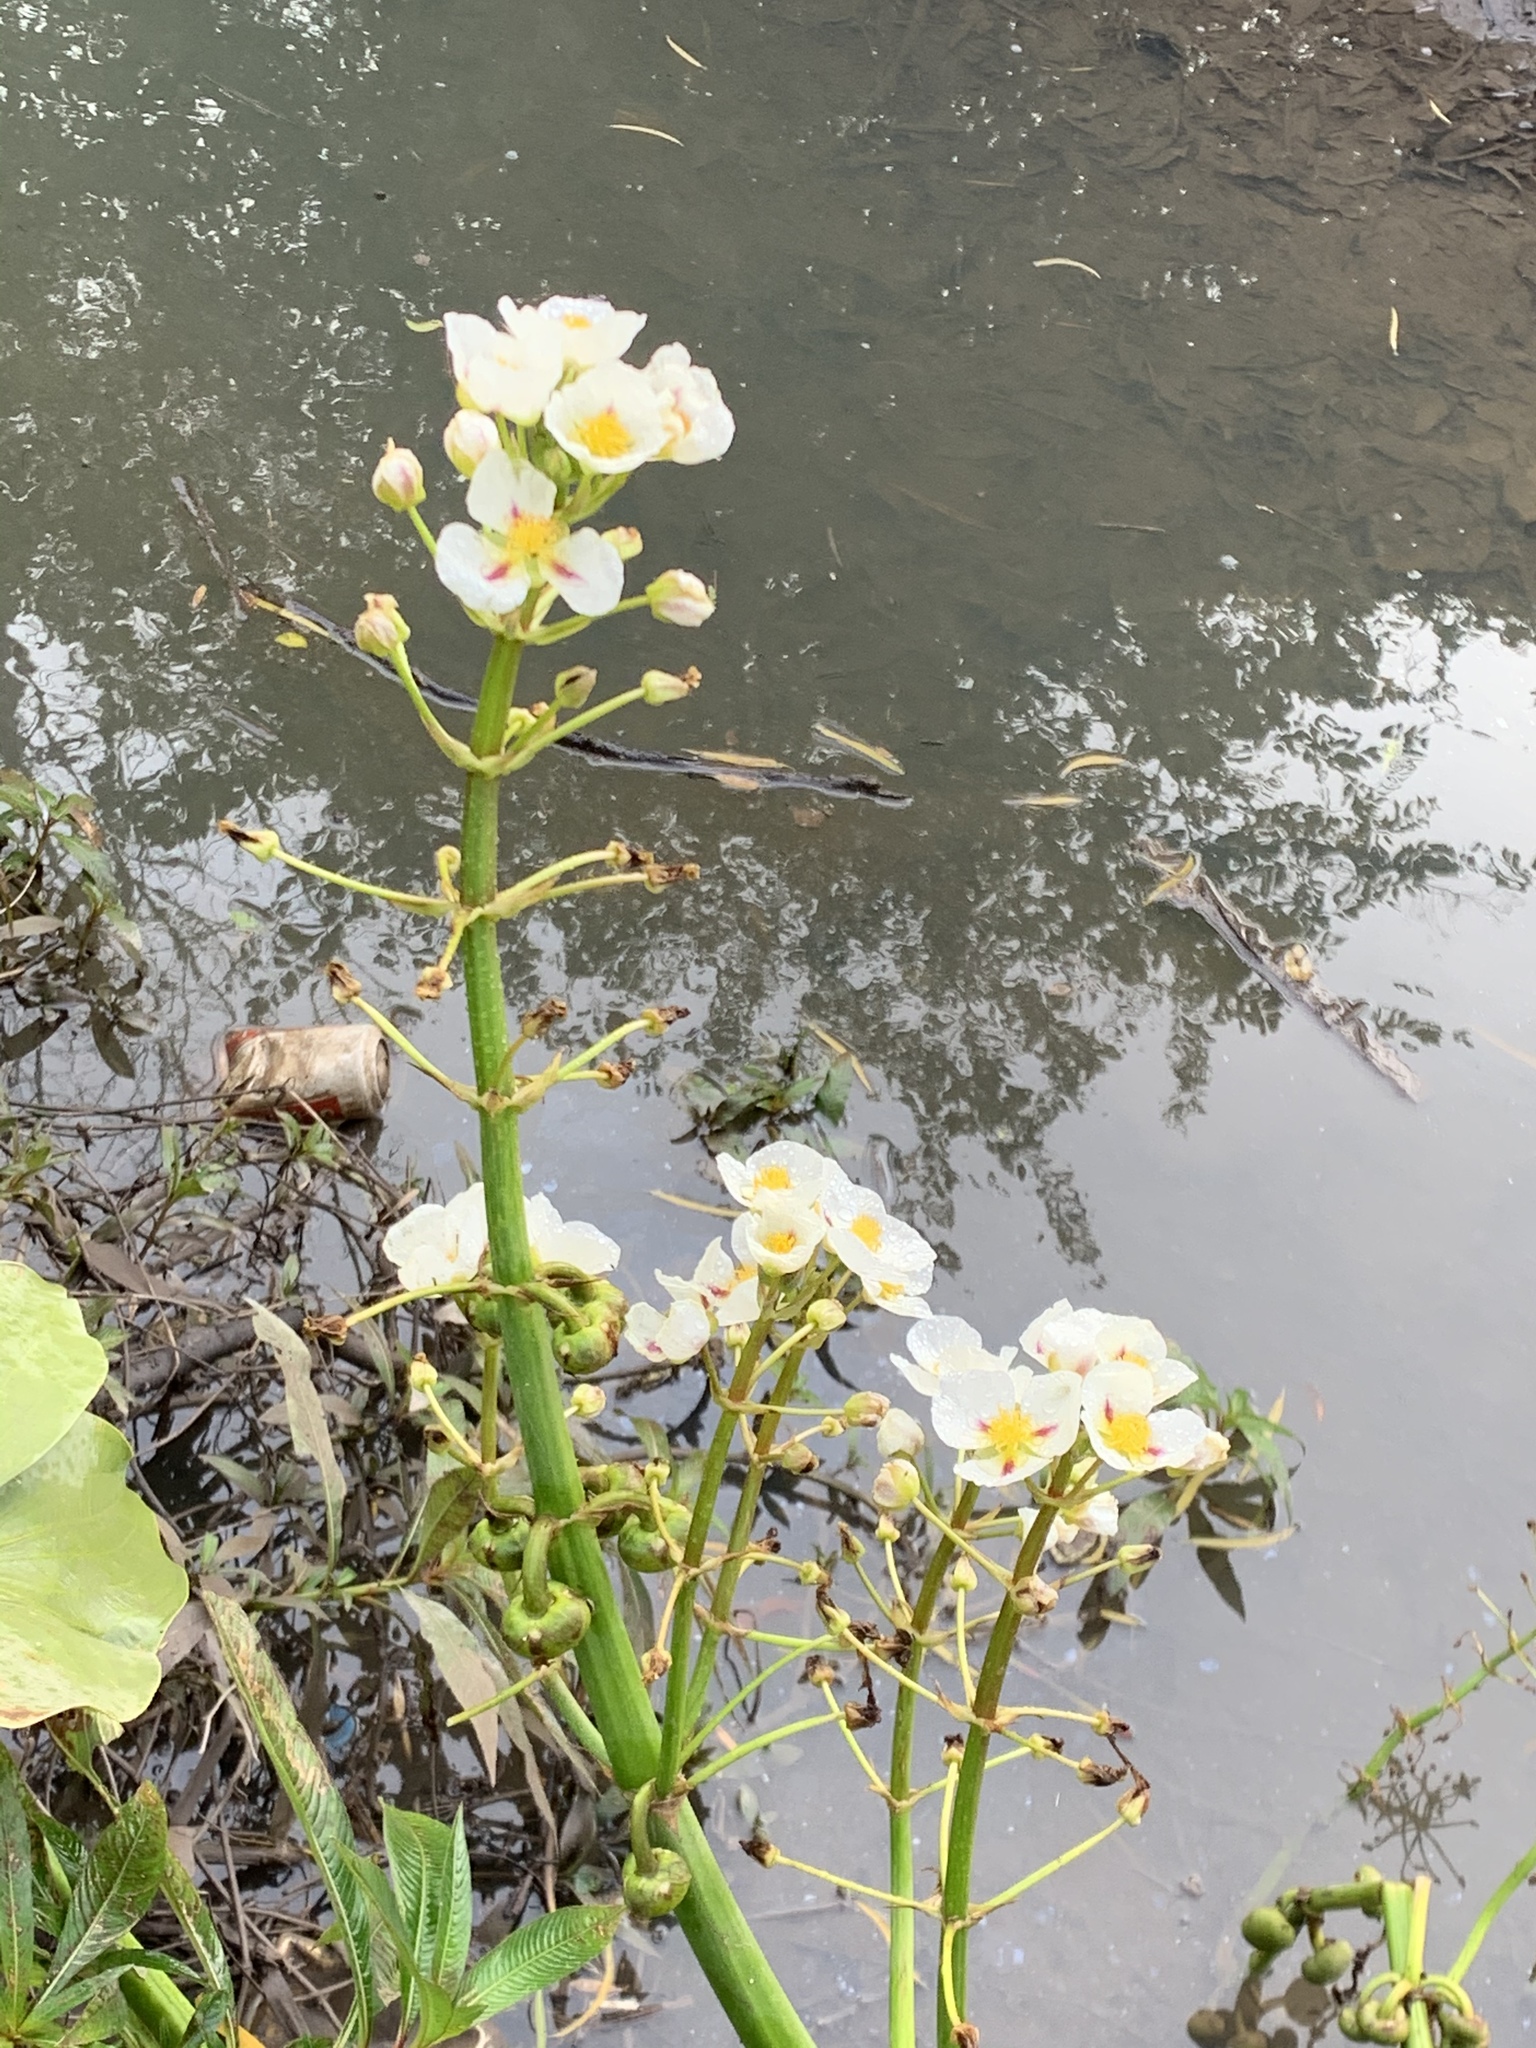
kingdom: Plantae
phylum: Tracheophyta
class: Liliopsida
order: Alismatales
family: Alismataceae
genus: Sagittaria
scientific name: Sagittaria montevidensis
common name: Giant arrowhead
